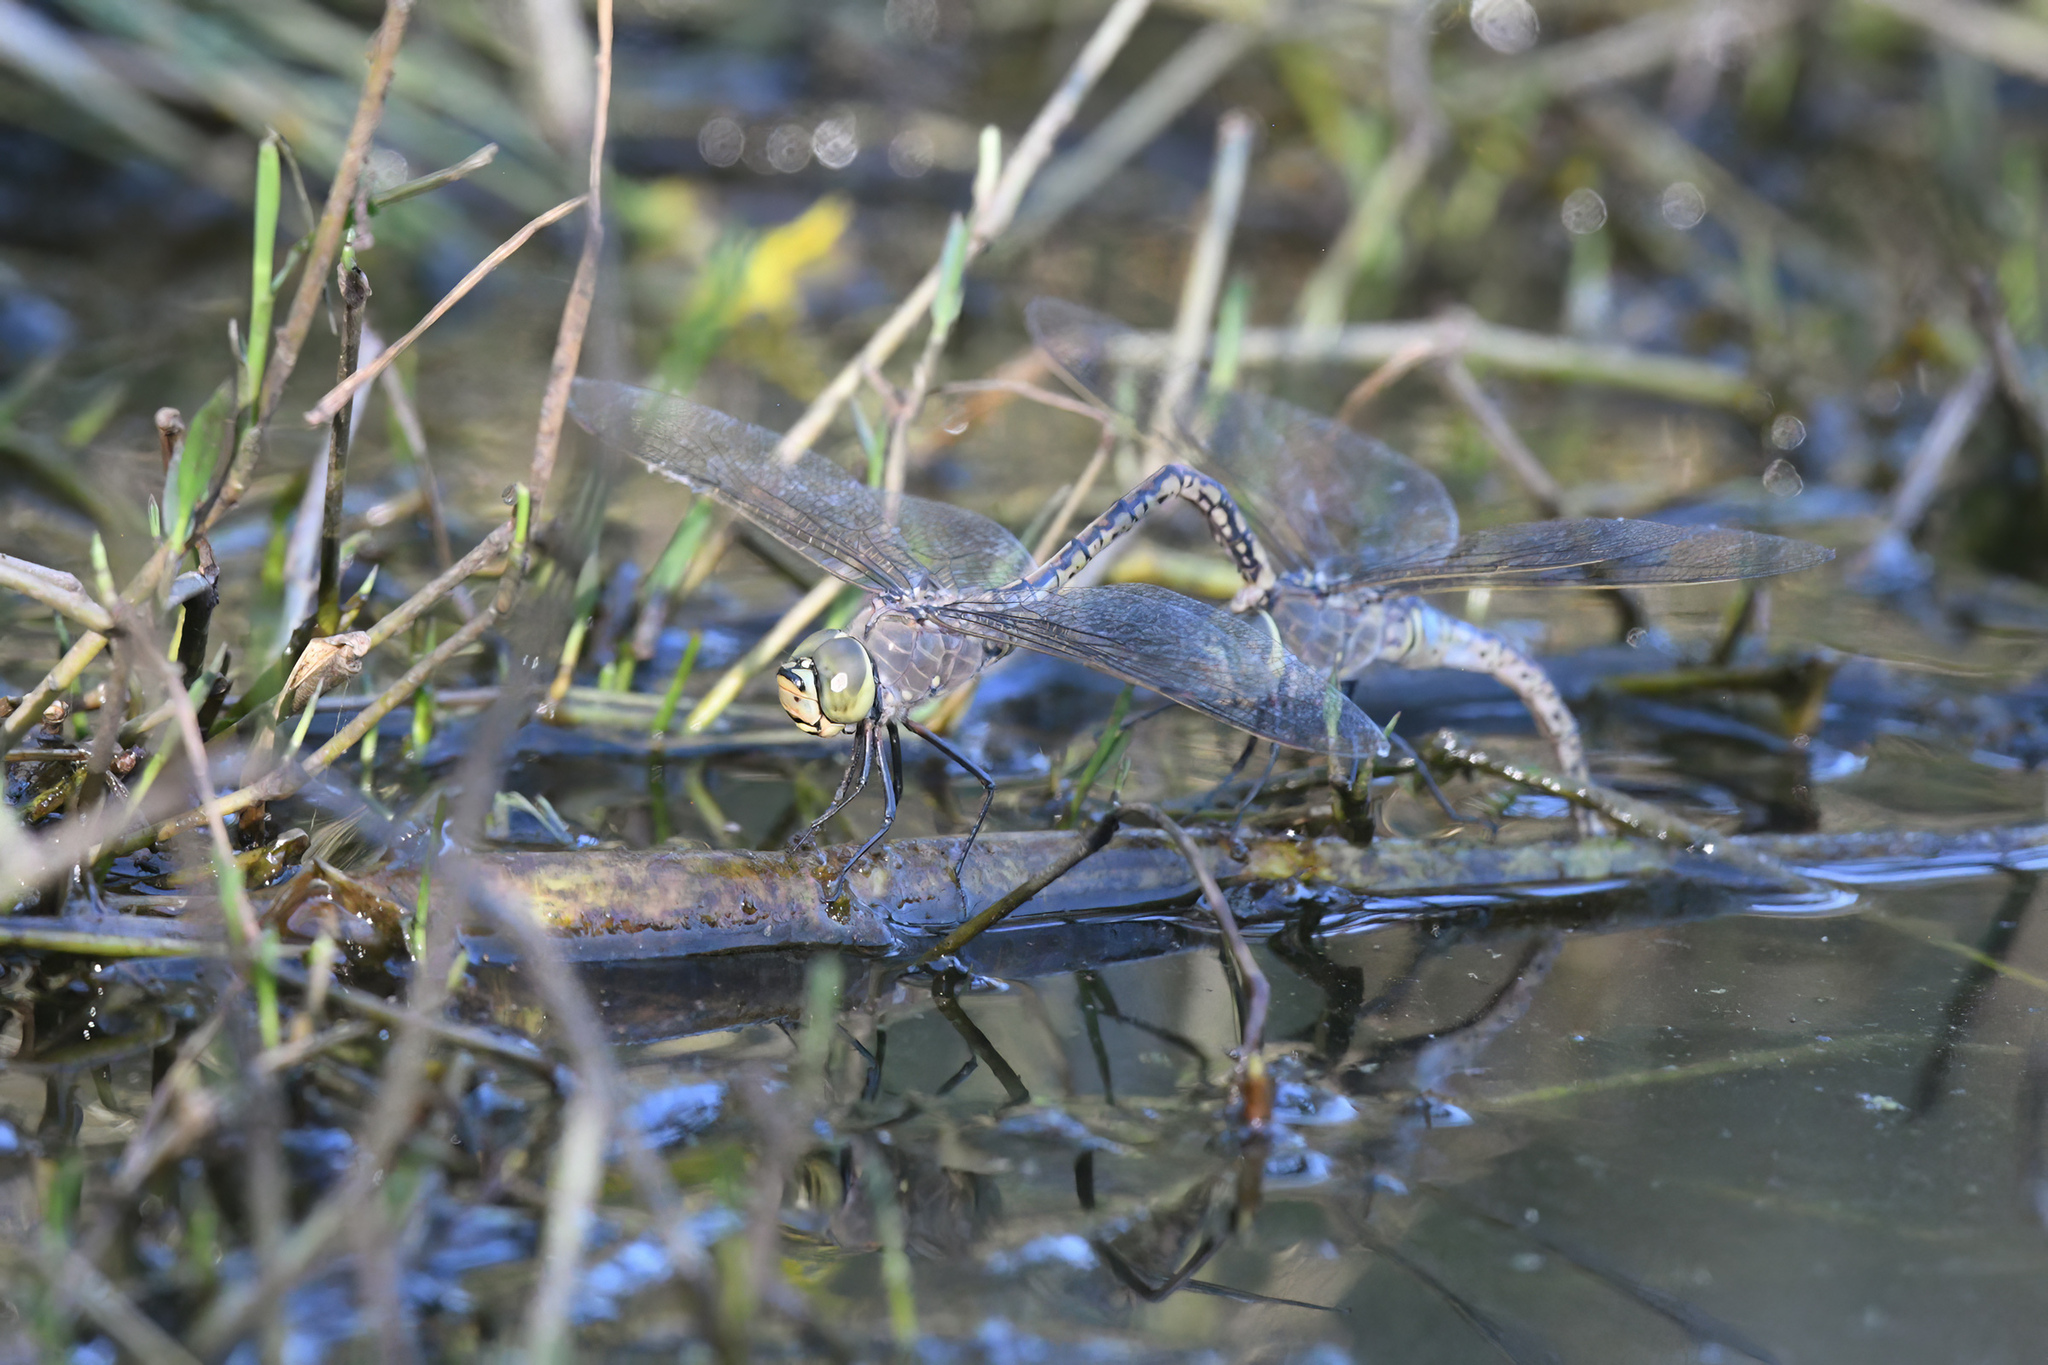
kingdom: Animalia
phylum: Arthropoda
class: Insecta
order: Odonata
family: Aeshnidae
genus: Anax
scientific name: Anax papuensis
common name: Australian emperor
